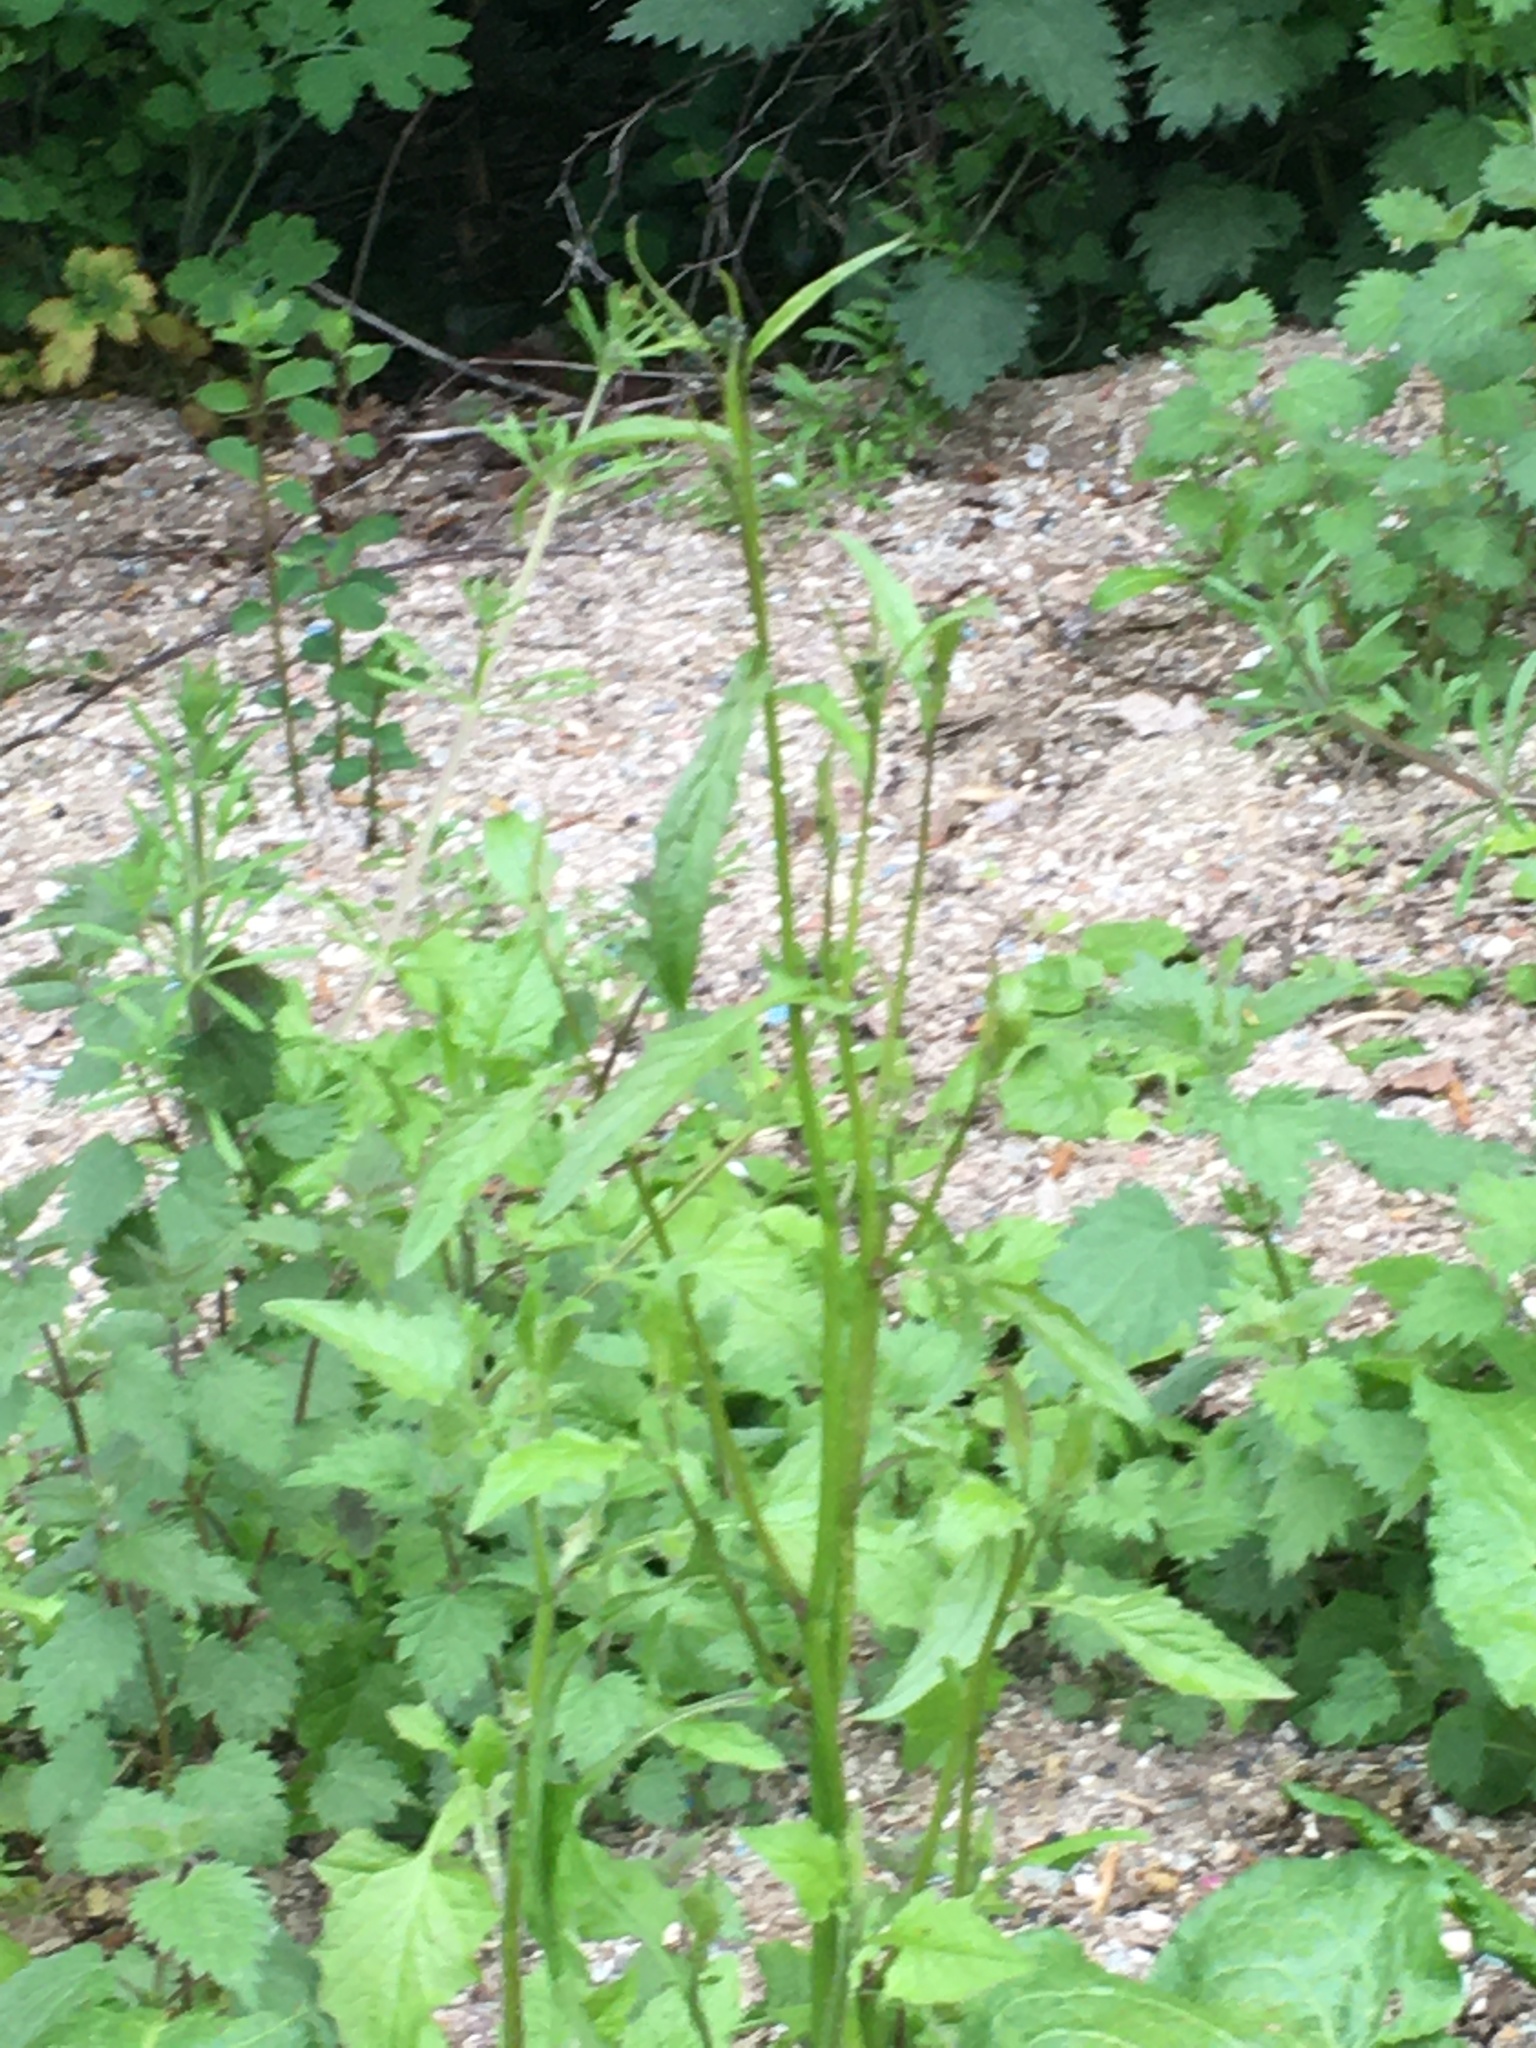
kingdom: Plantae
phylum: Tracheophyta
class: Magnoliopsida
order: Asterales
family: Asteraceae
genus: Lapsana
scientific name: Lapsana communis
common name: Nipplewort
